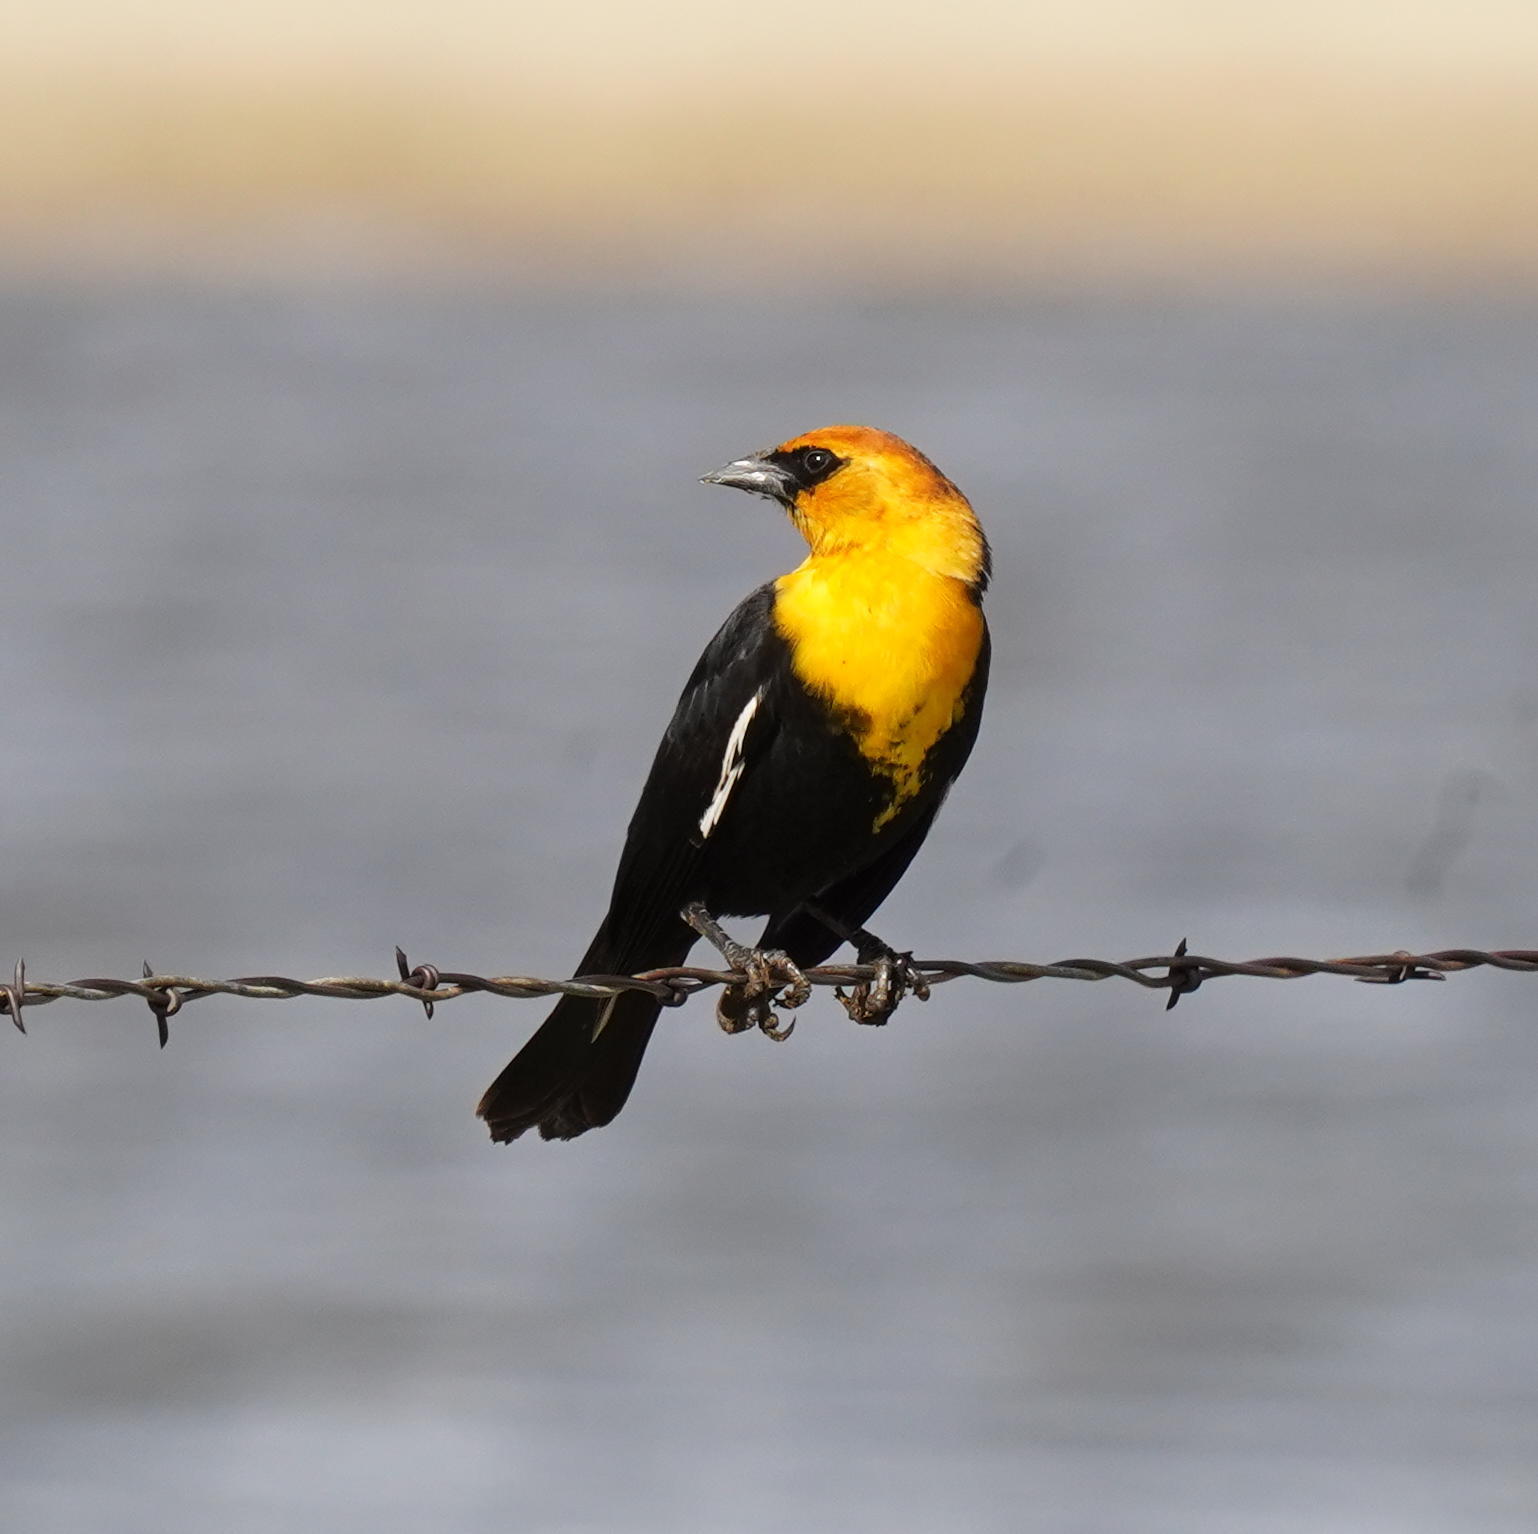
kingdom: Animalia
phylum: Chordata
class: Aves
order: Passeriformes
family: Icteridae
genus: Xanthocephalus
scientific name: Xanthocephalus xanthocephalus
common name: Yellow-headed blackbird
